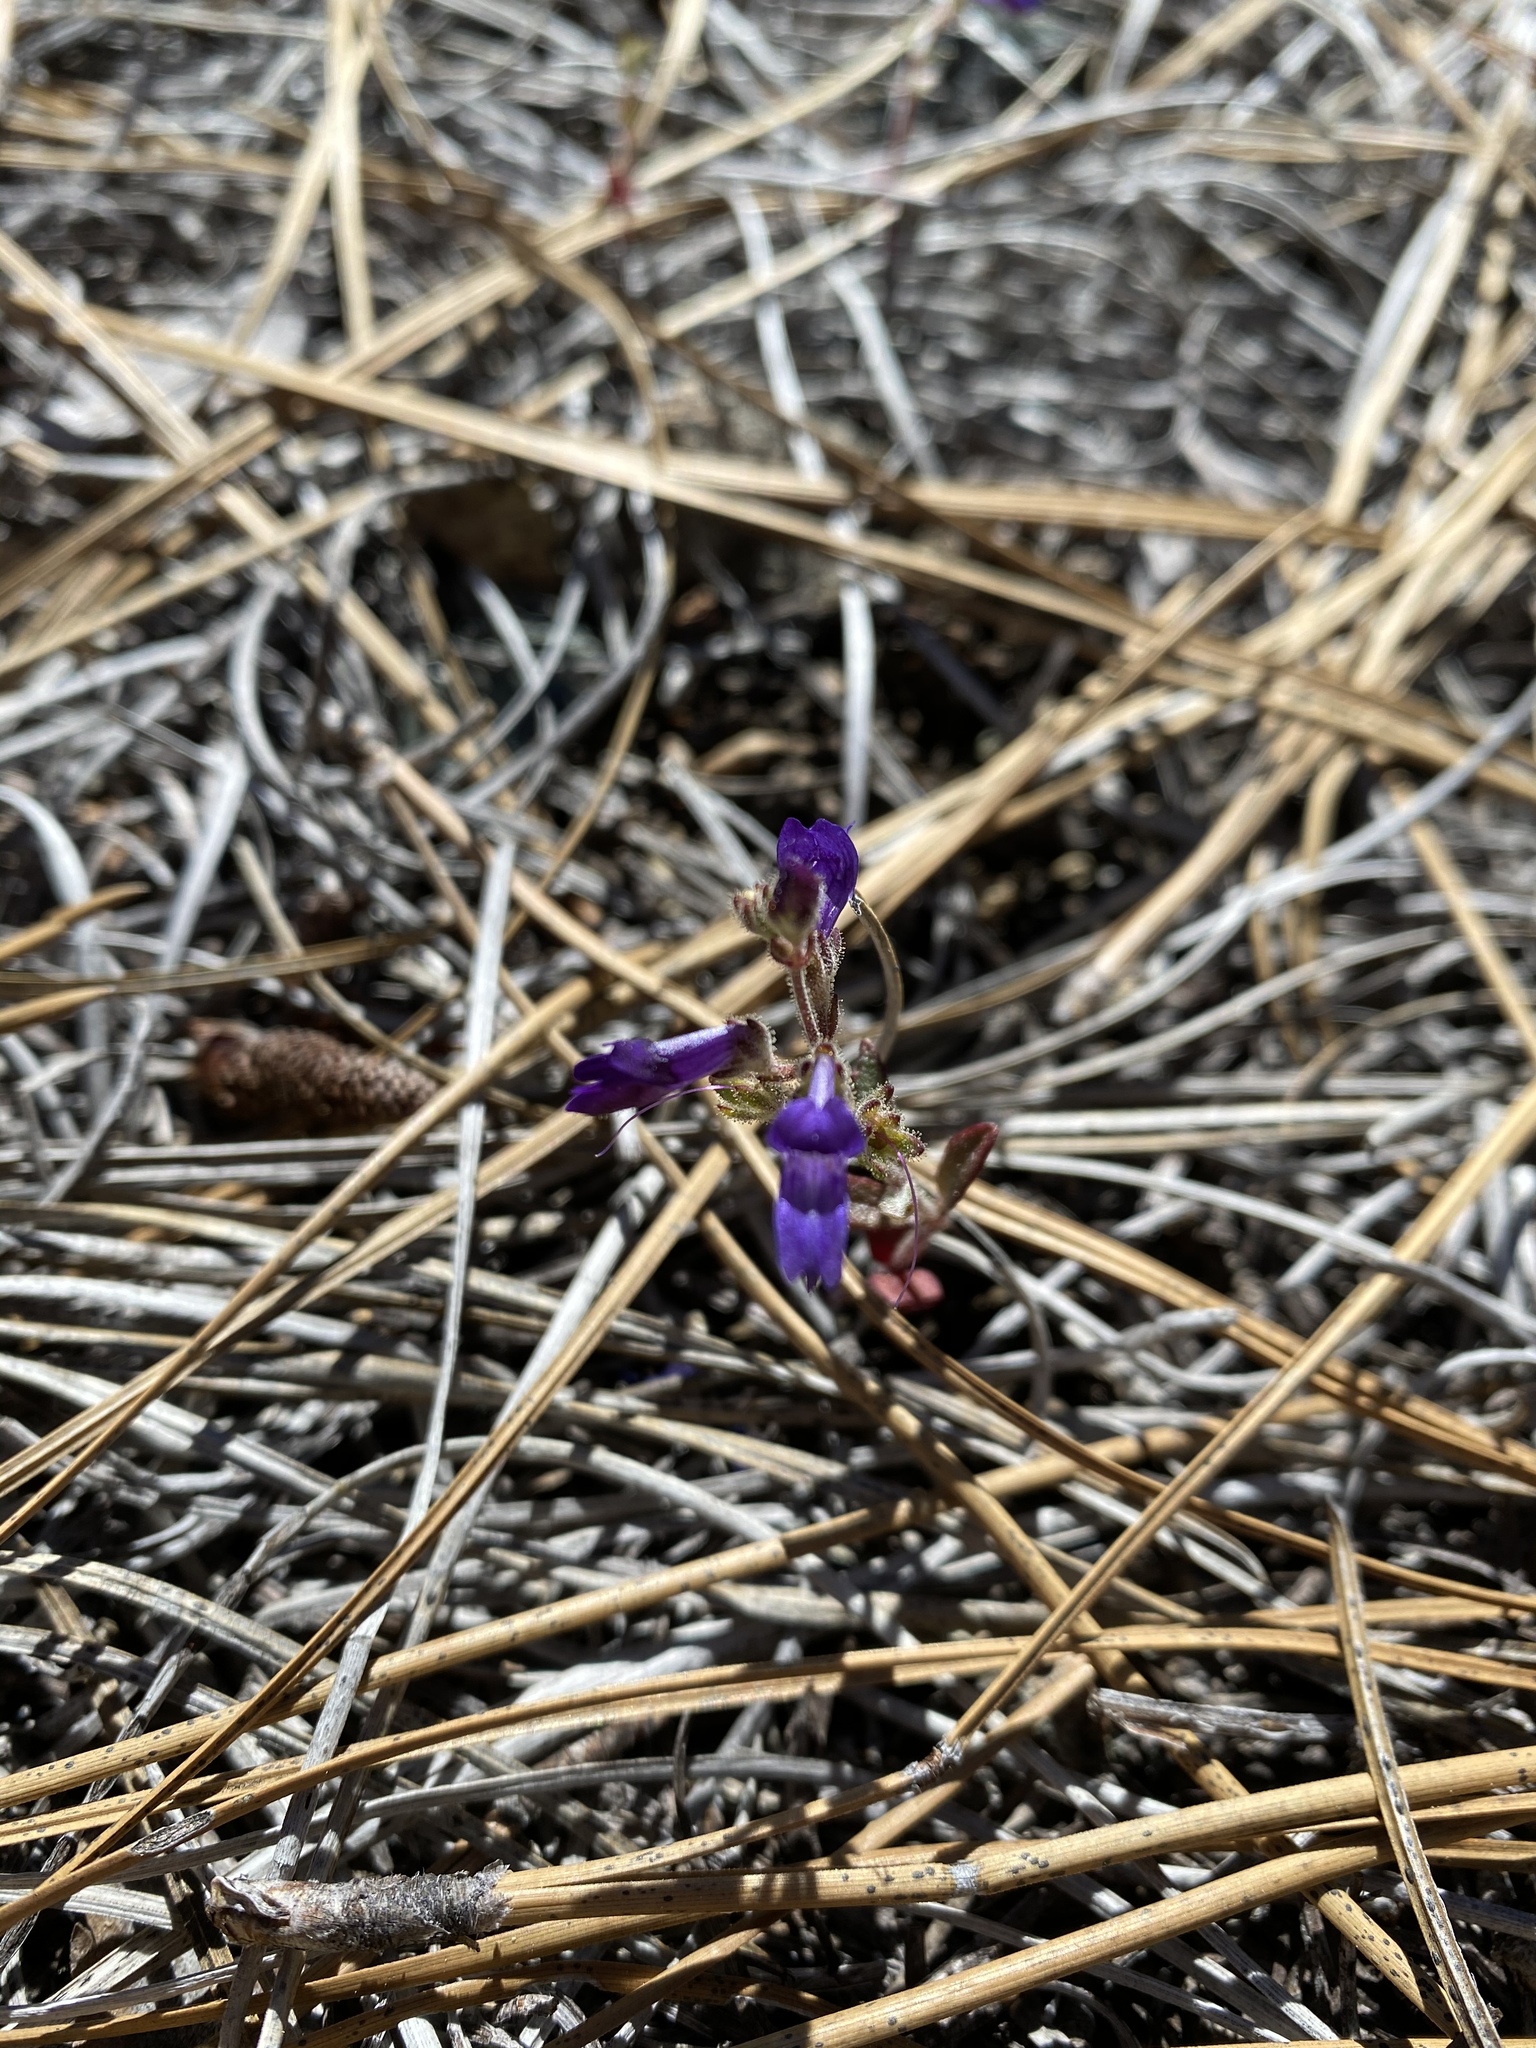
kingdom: Plantae
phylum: Tracheophyta
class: Magnoliopsida
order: Lamiales
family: Plantaginaceae
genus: Collinsia
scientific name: Collinsia greenei
